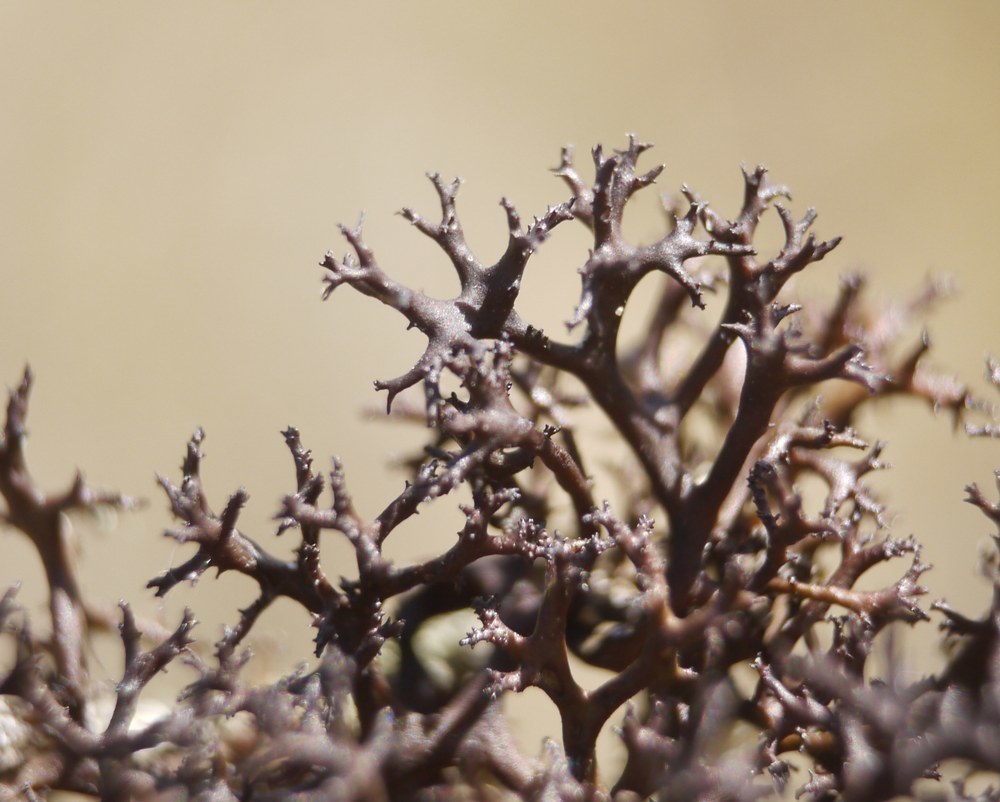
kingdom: Fungi
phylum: Ascomycota
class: Lecanoromycetes
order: Lecanorales
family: Parmeliaceae
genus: Cetraria
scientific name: Cetraria aculeata
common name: Spiny heath lichen
